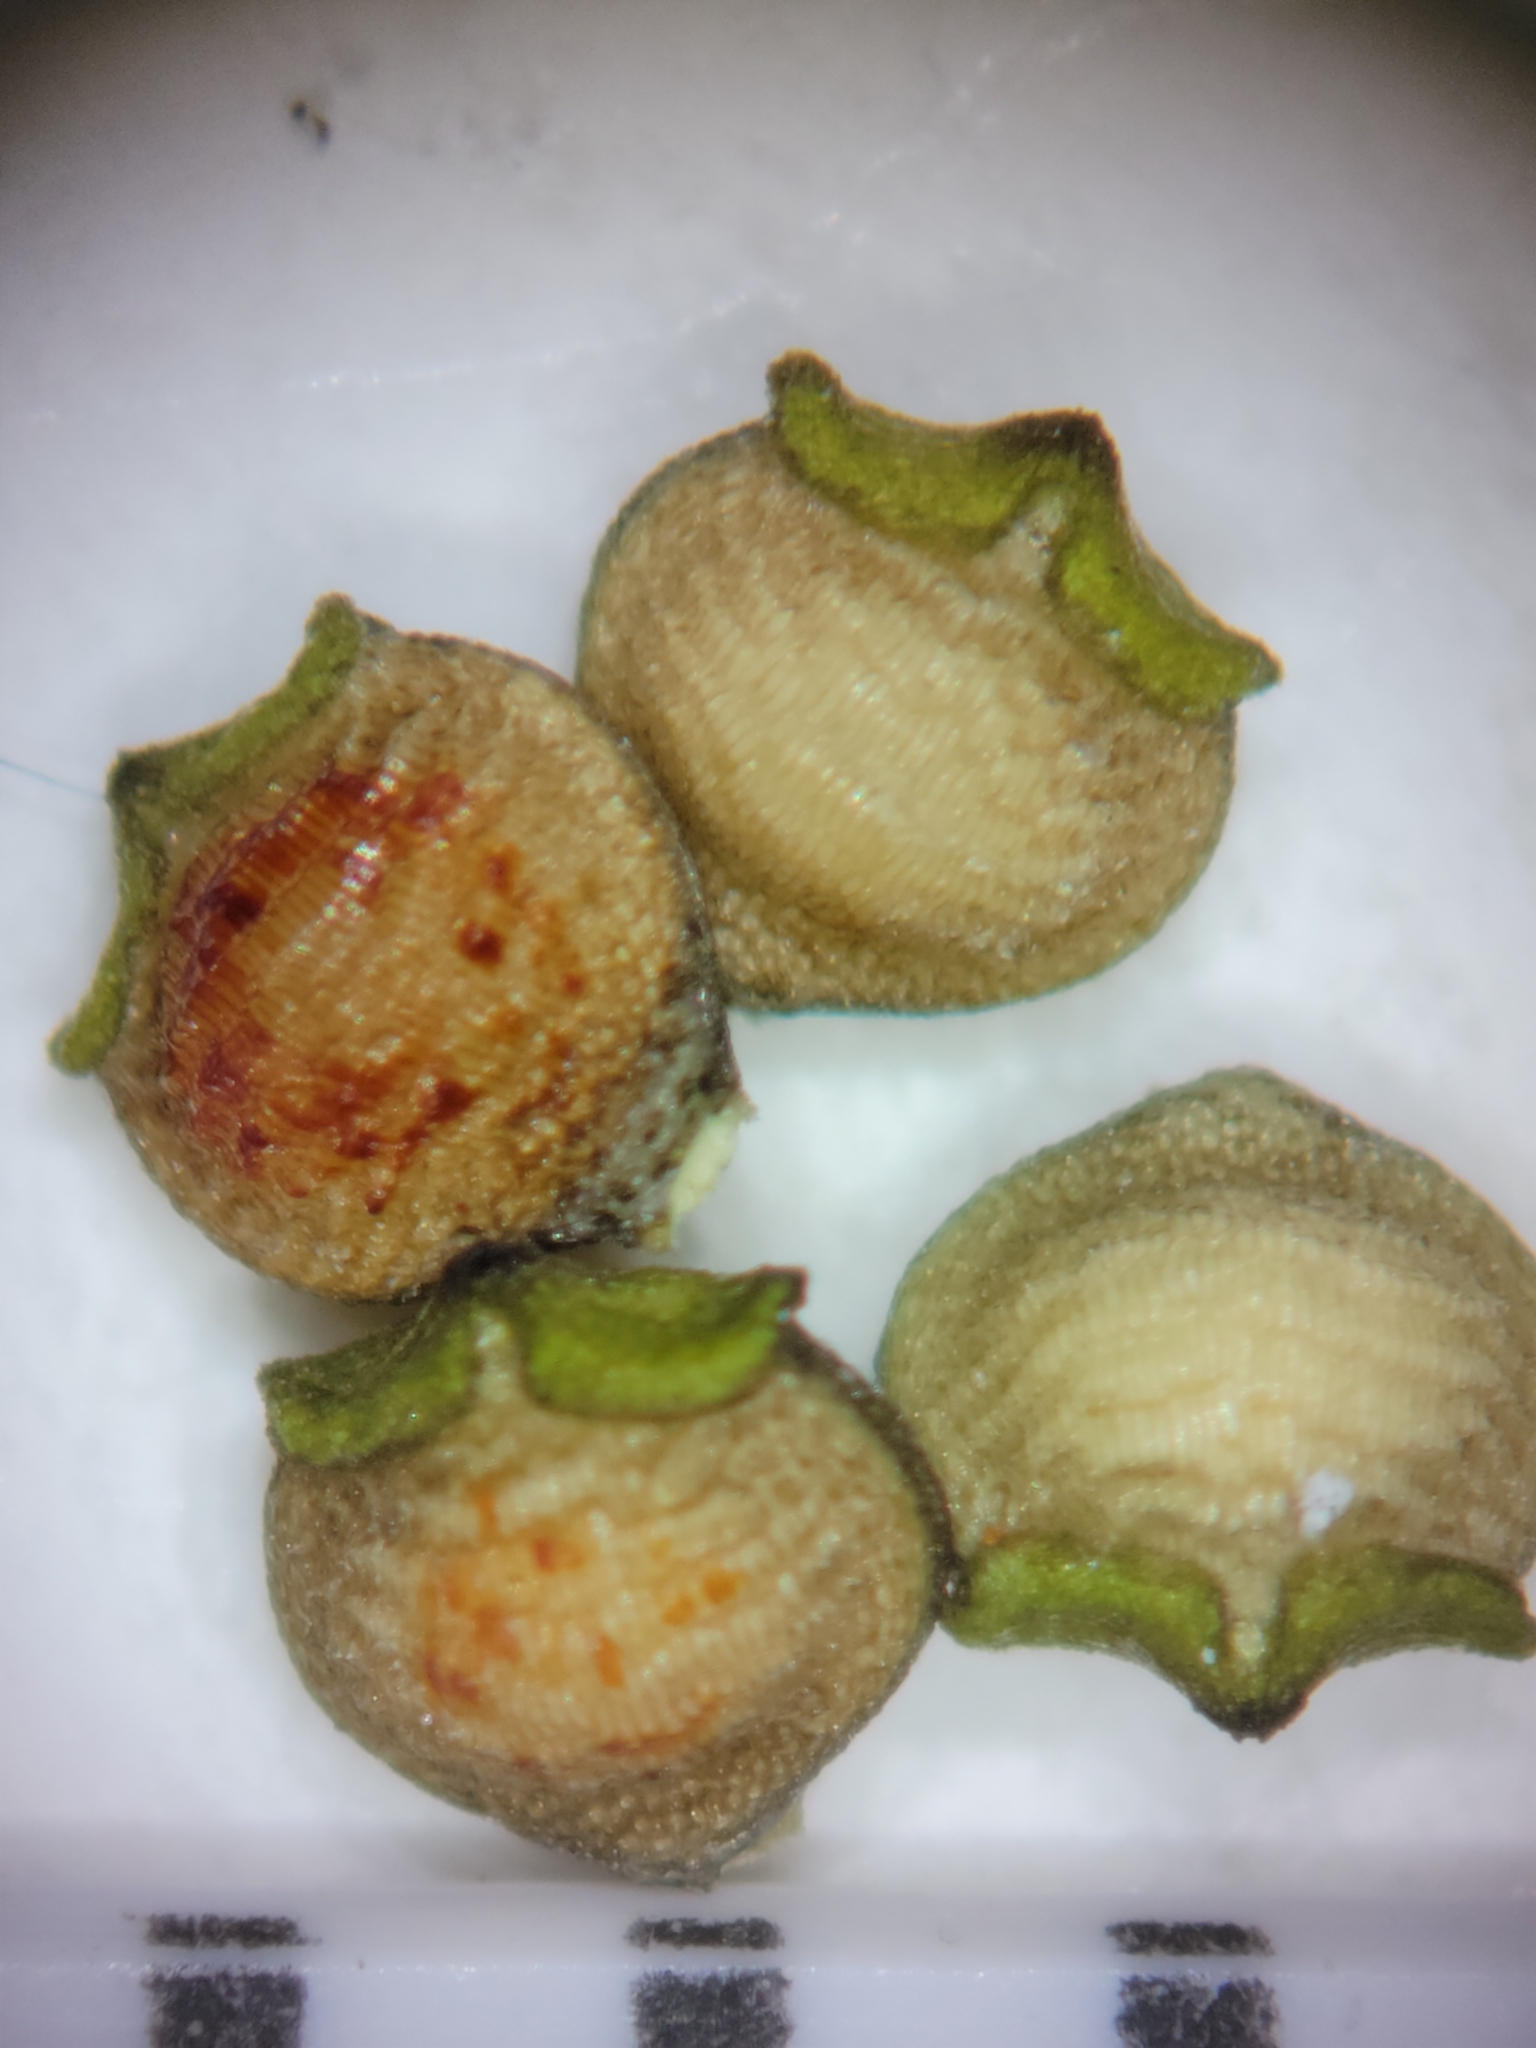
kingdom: Plantae
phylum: Tracheophyta
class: Liliopsida
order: Poales
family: Cyperaceae
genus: Rhynchospora
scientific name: Rhynchospora eximia
